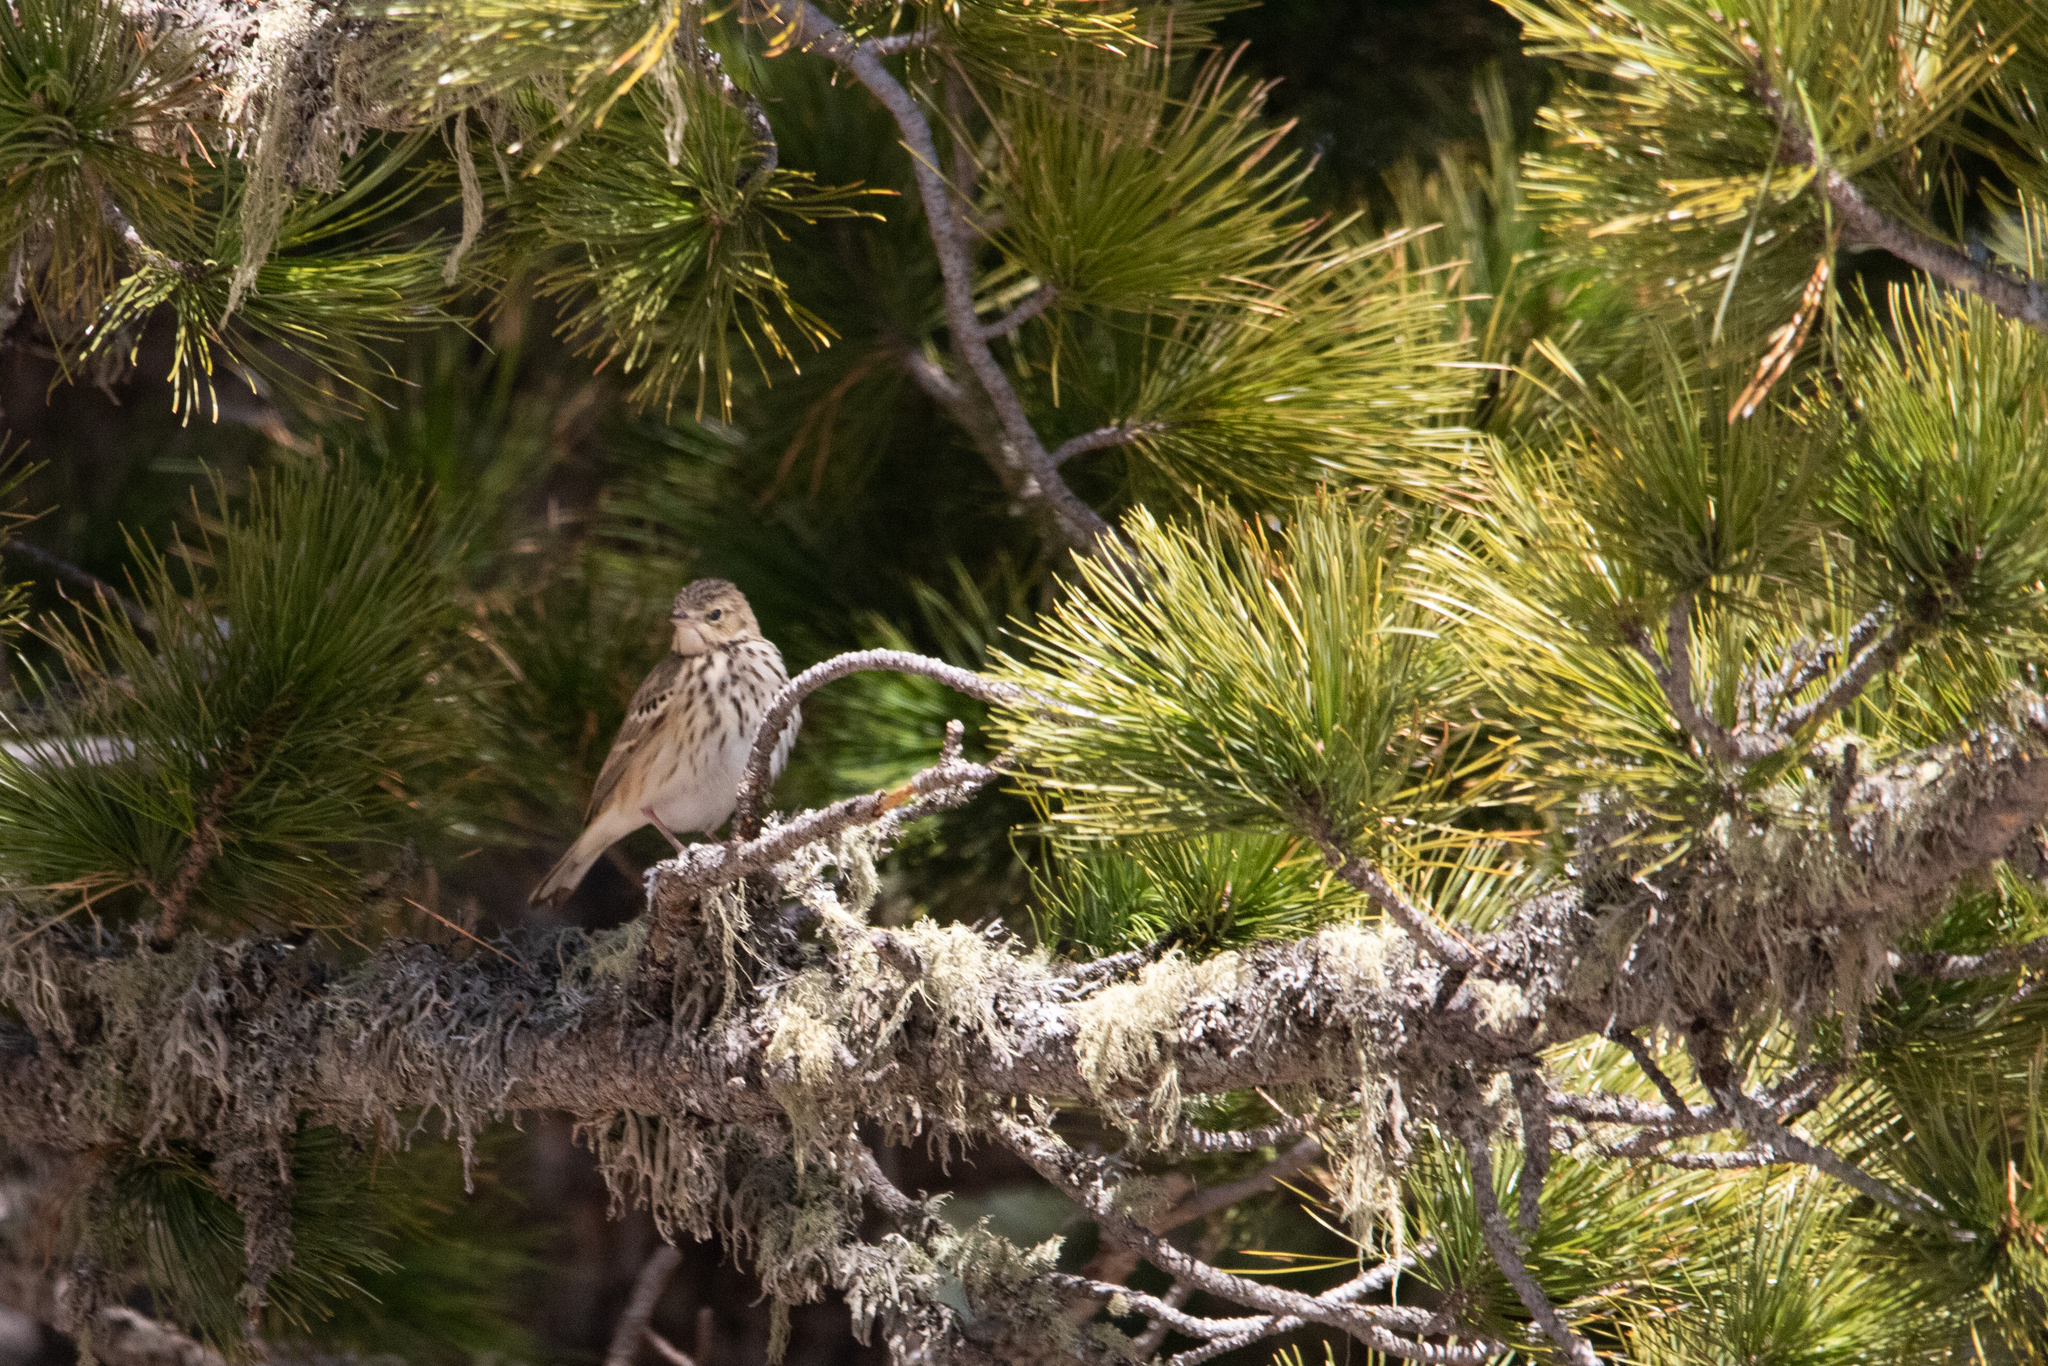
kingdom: Animalia
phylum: Chordata
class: Aves
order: Passeriformes
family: Motacillidae
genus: Anthus
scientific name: Anthus trivialis
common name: Tree pipit
